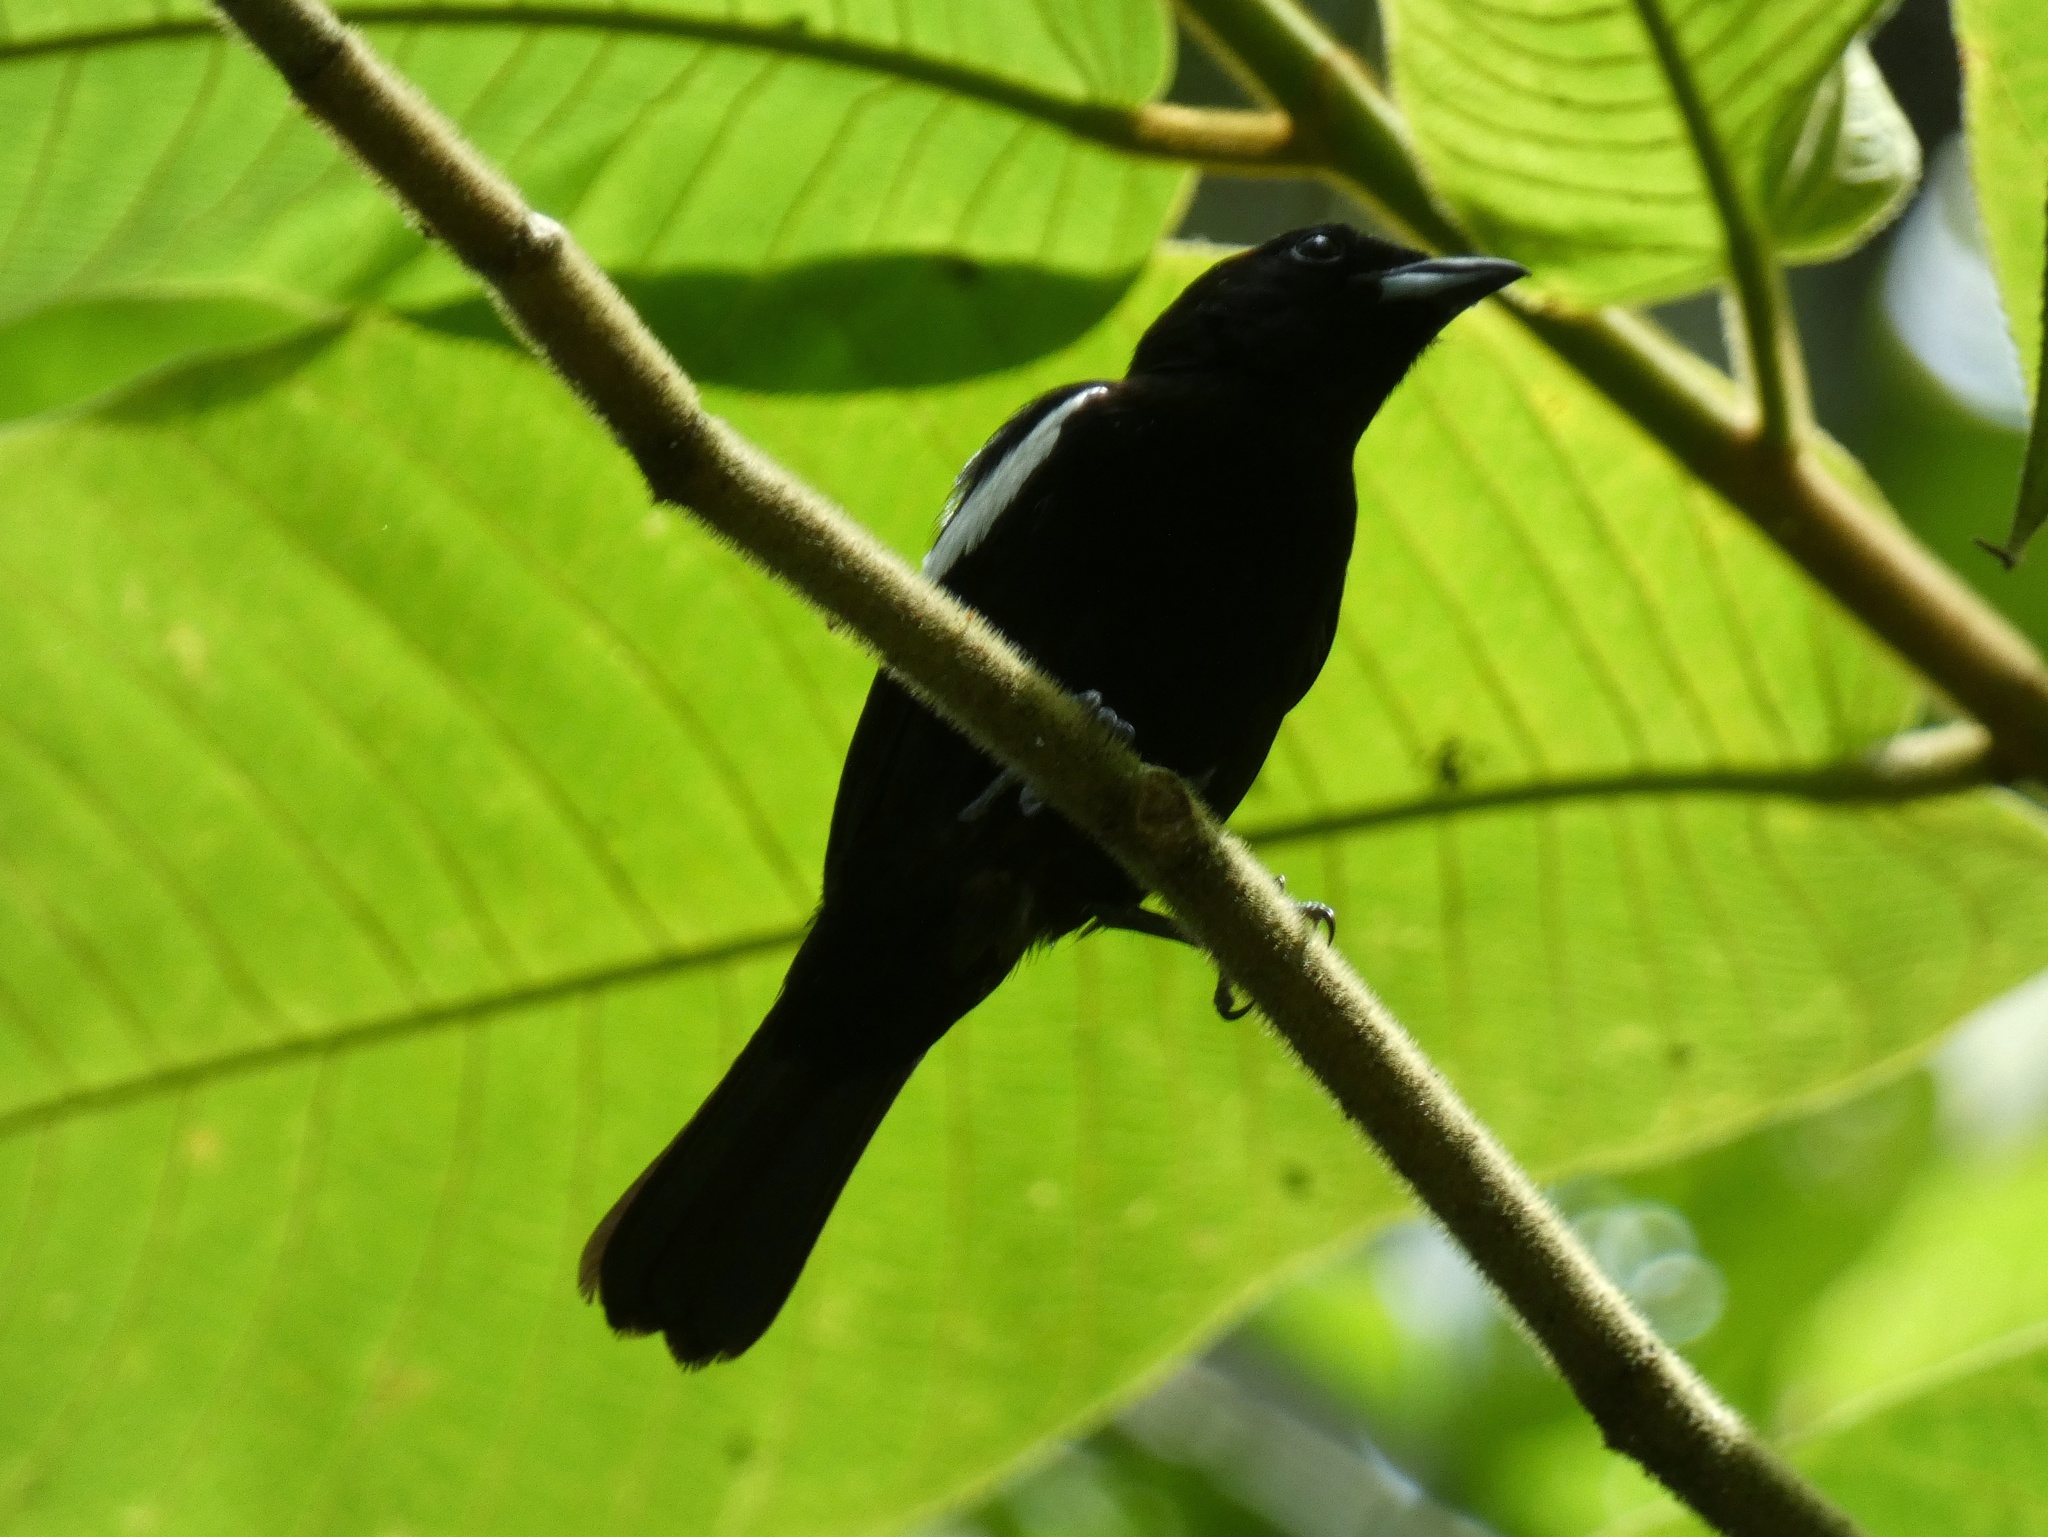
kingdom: Animalia
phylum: Chordata
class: Aves
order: Passeriformes
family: Thraupidae
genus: Loriotus
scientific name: Loriotus luctuosus
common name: White-shouldered tanager
